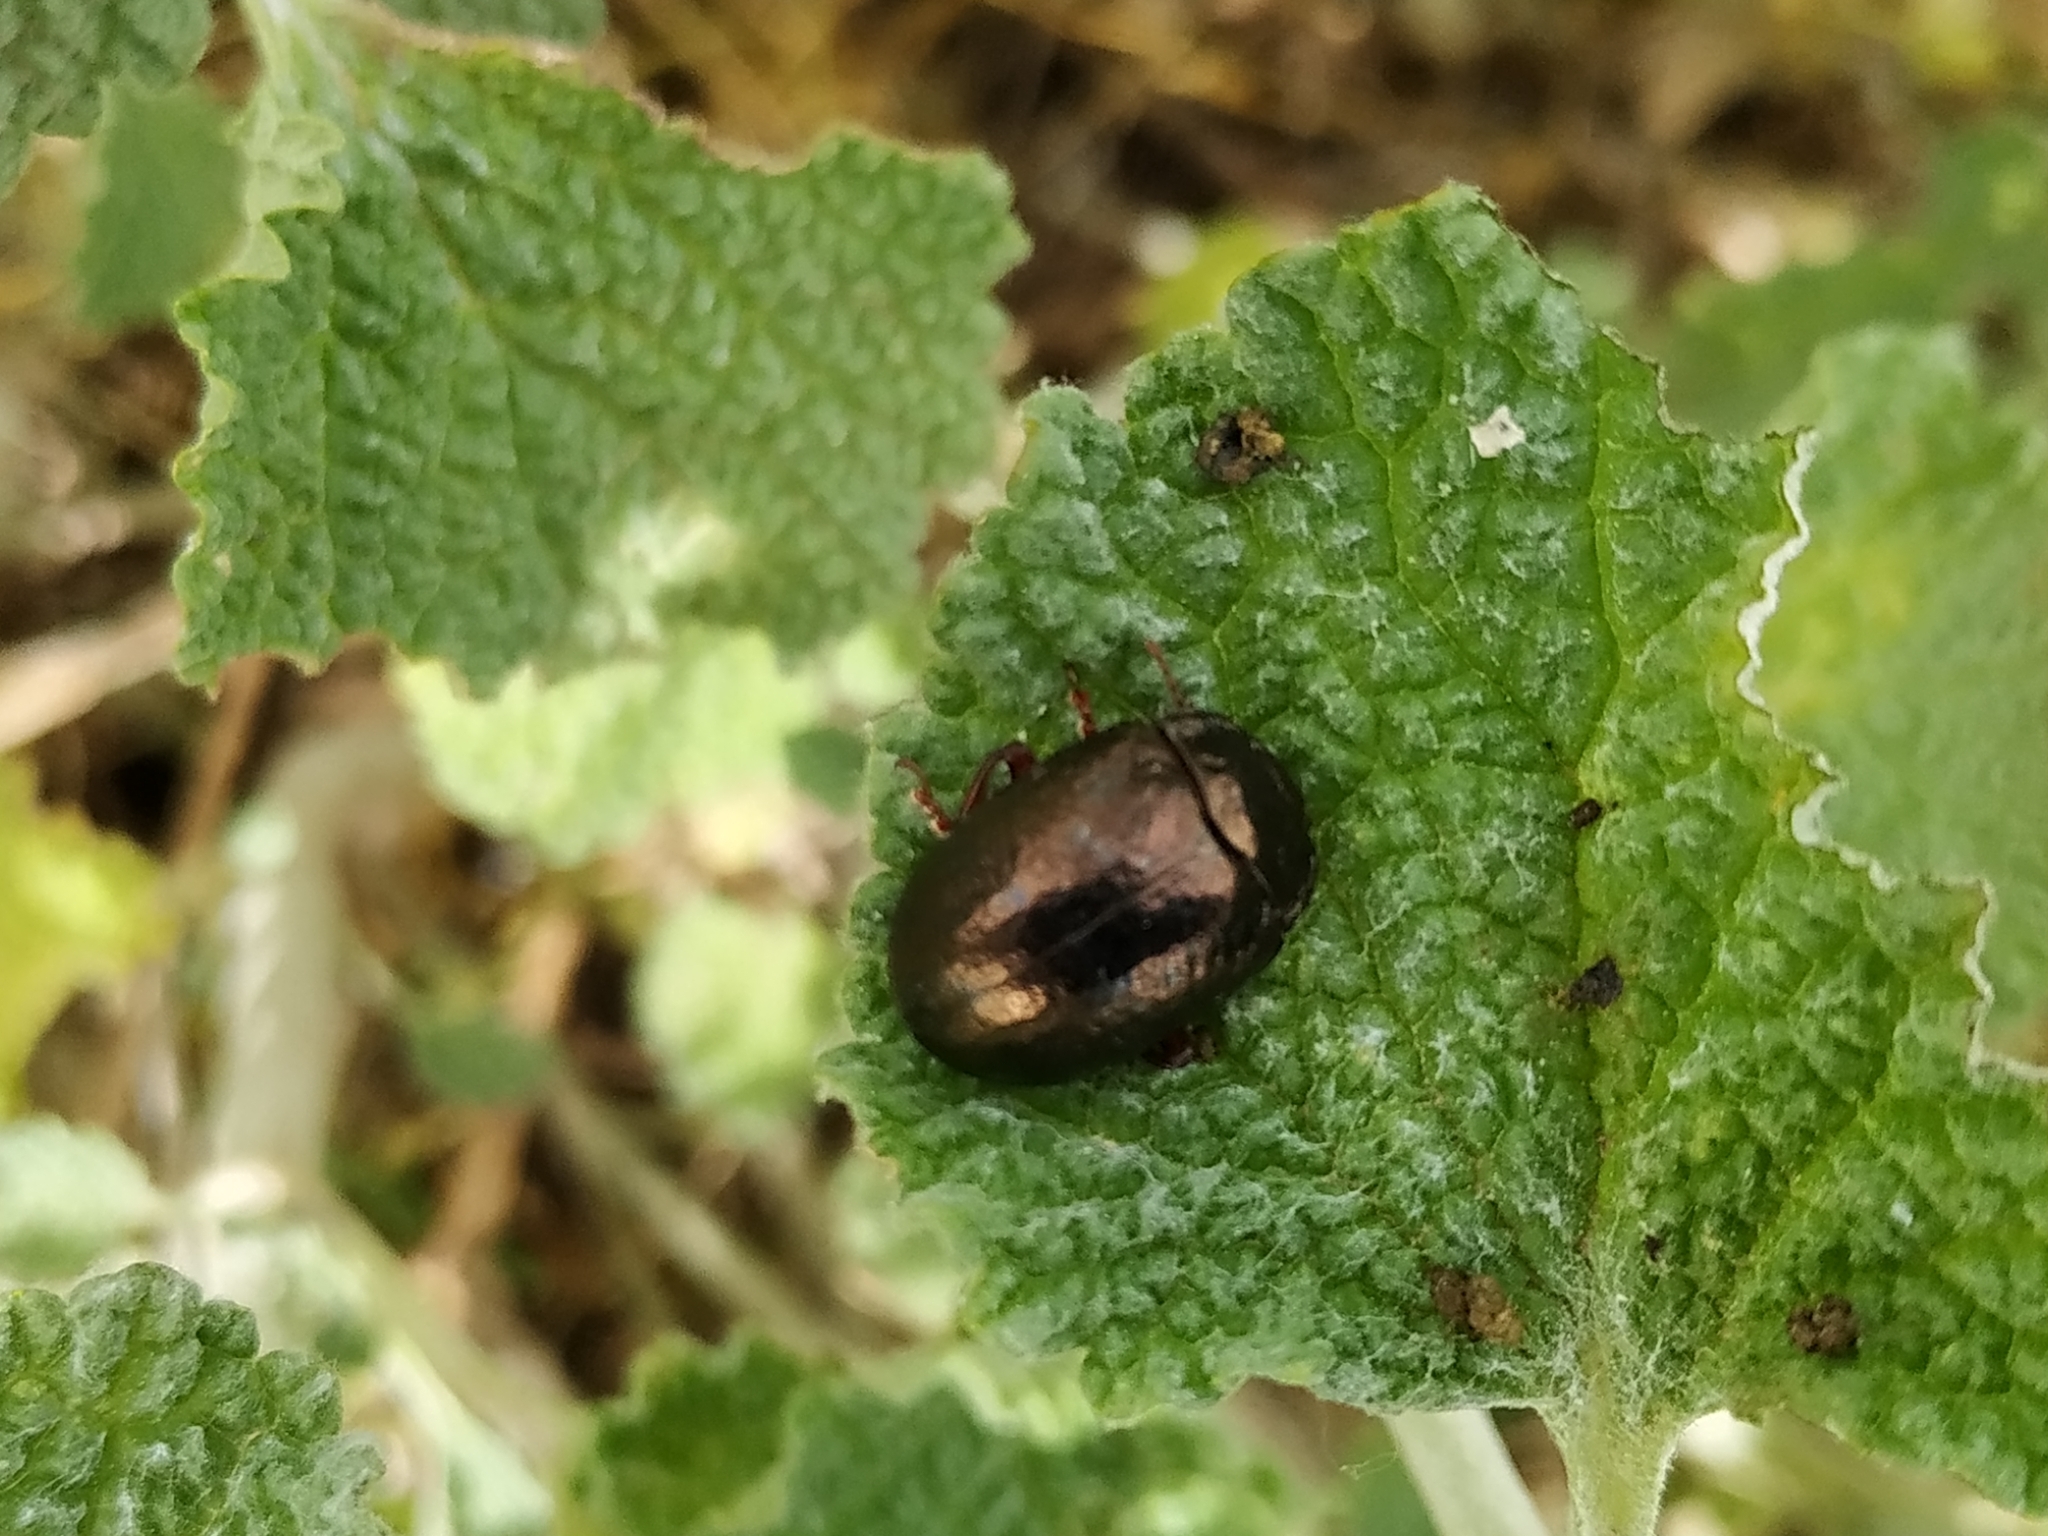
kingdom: Animalia
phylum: Arthropoda
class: Insecta
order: Coleoptera
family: Chrysomelidae
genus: Chrysolina
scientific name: Chrysolina bankii
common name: Leaf beetle
